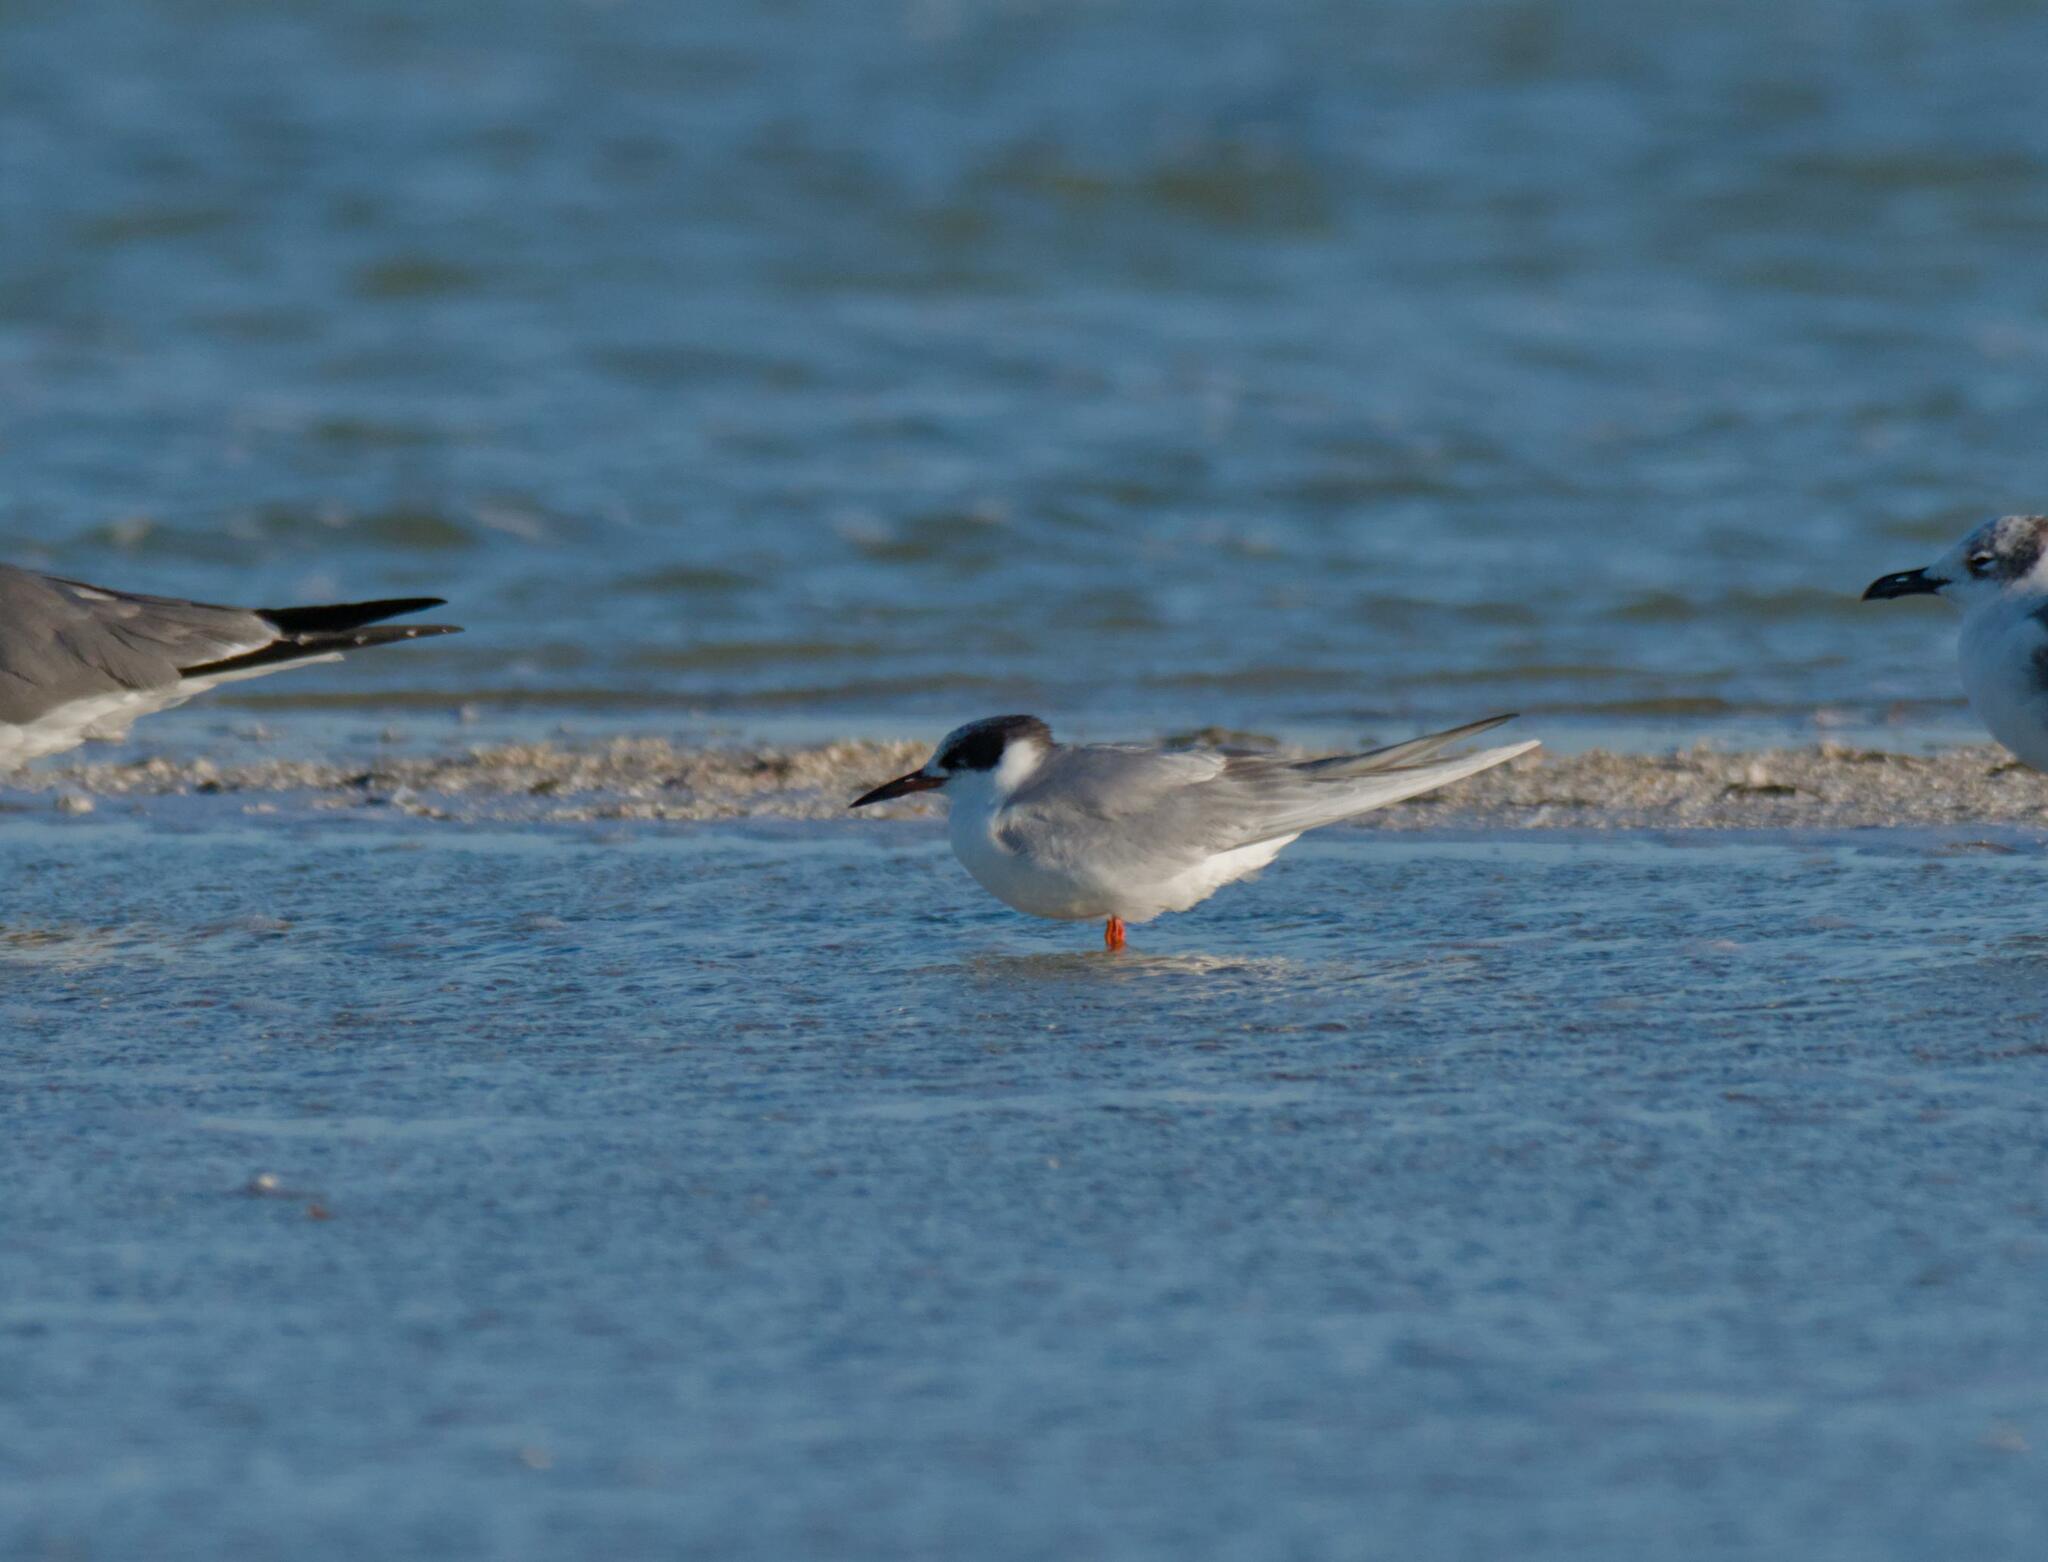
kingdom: Animalia
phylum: Chordata
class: Aves
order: Charadriiformes
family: Laridae
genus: Sterna
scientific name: Sterna forsteri
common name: Forster's tern
